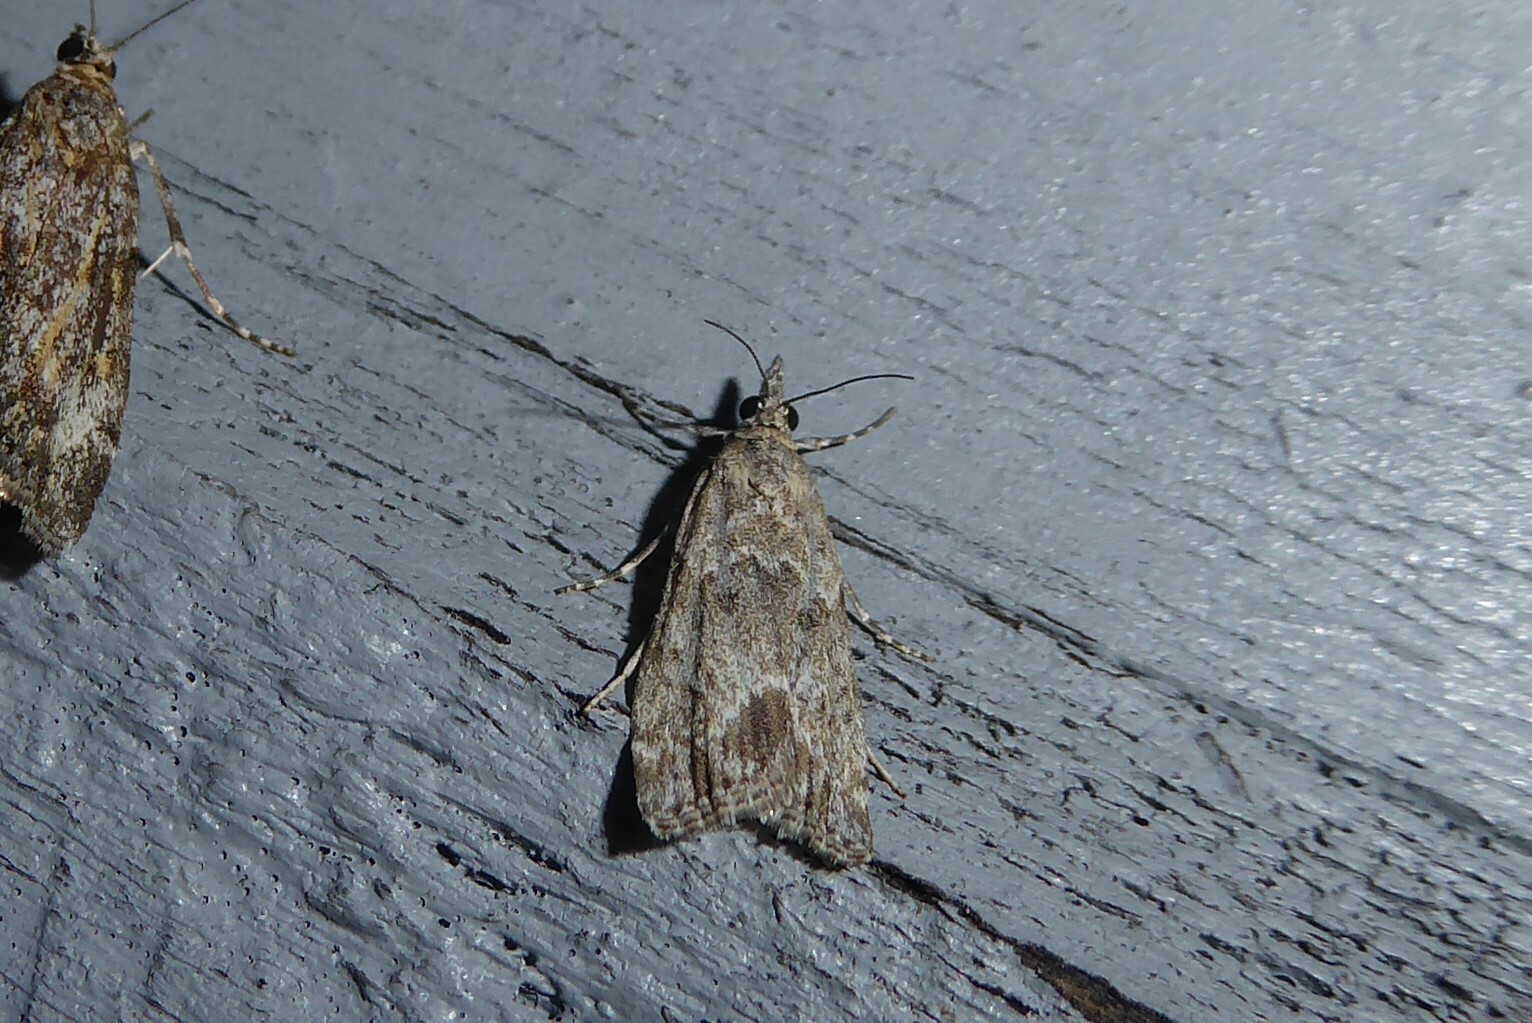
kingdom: Animalia
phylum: Arthropoda
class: Insecta
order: Lepidoptera
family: Crambidae
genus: Eudonia
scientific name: Eudonia rakaiensis
